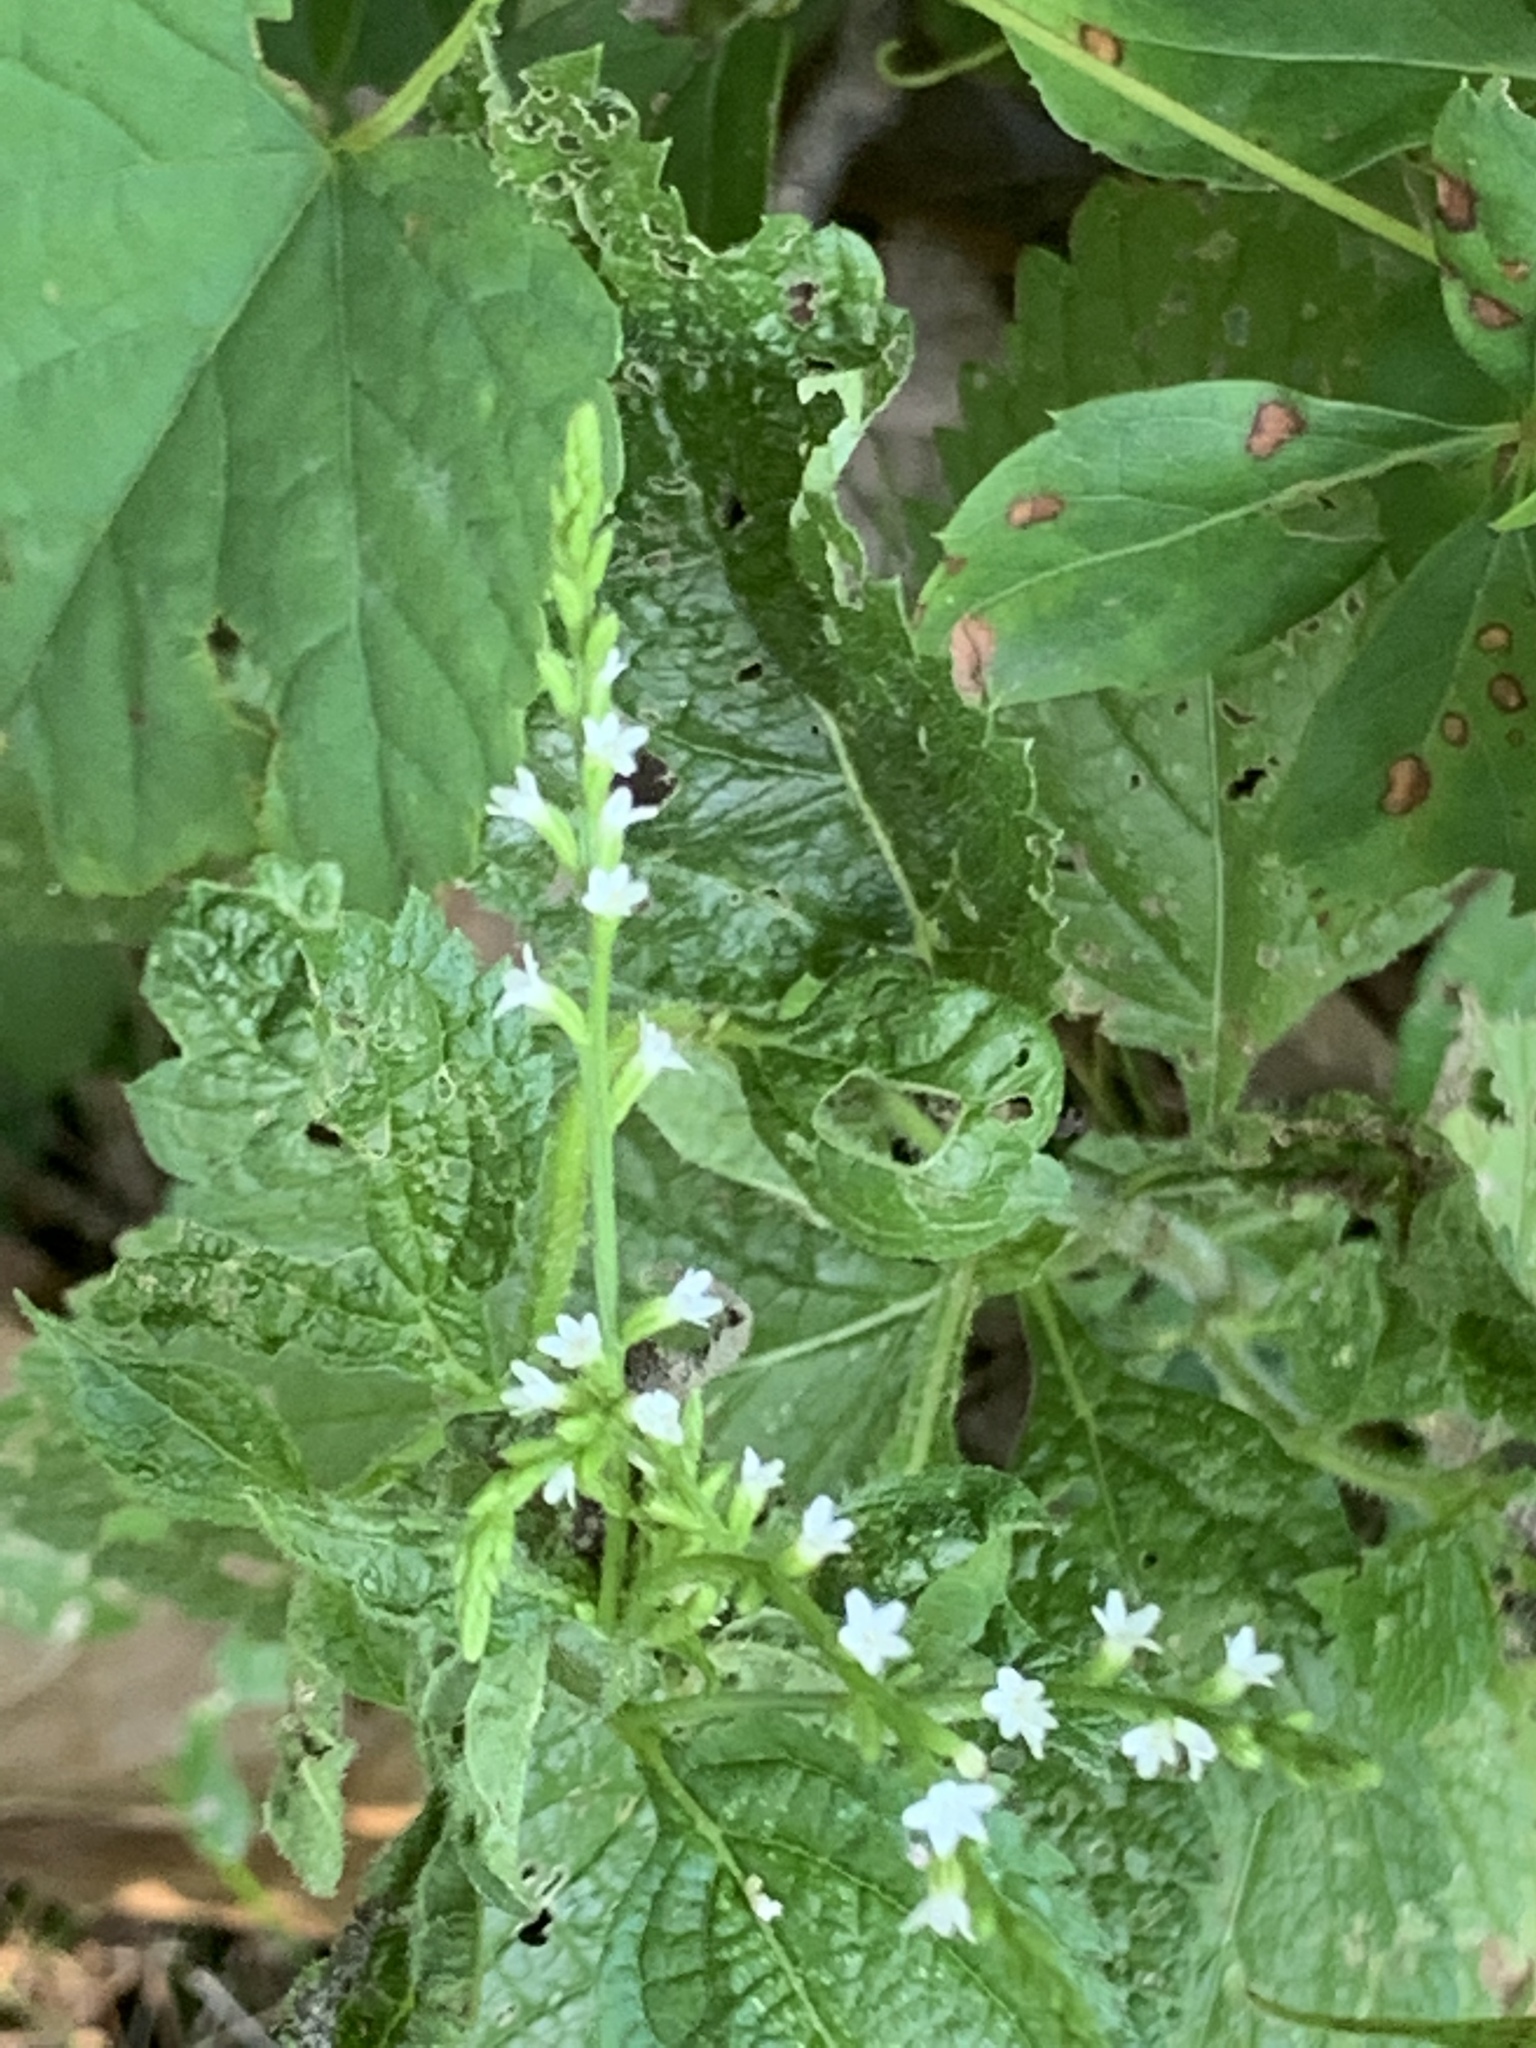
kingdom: Plantae
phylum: Tracheophyta
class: Magnoliopsida
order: Lamiales
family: Verbenaceae
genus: Verbena
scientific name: Verbena urticifolia
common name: Nettle-leaved vervain
